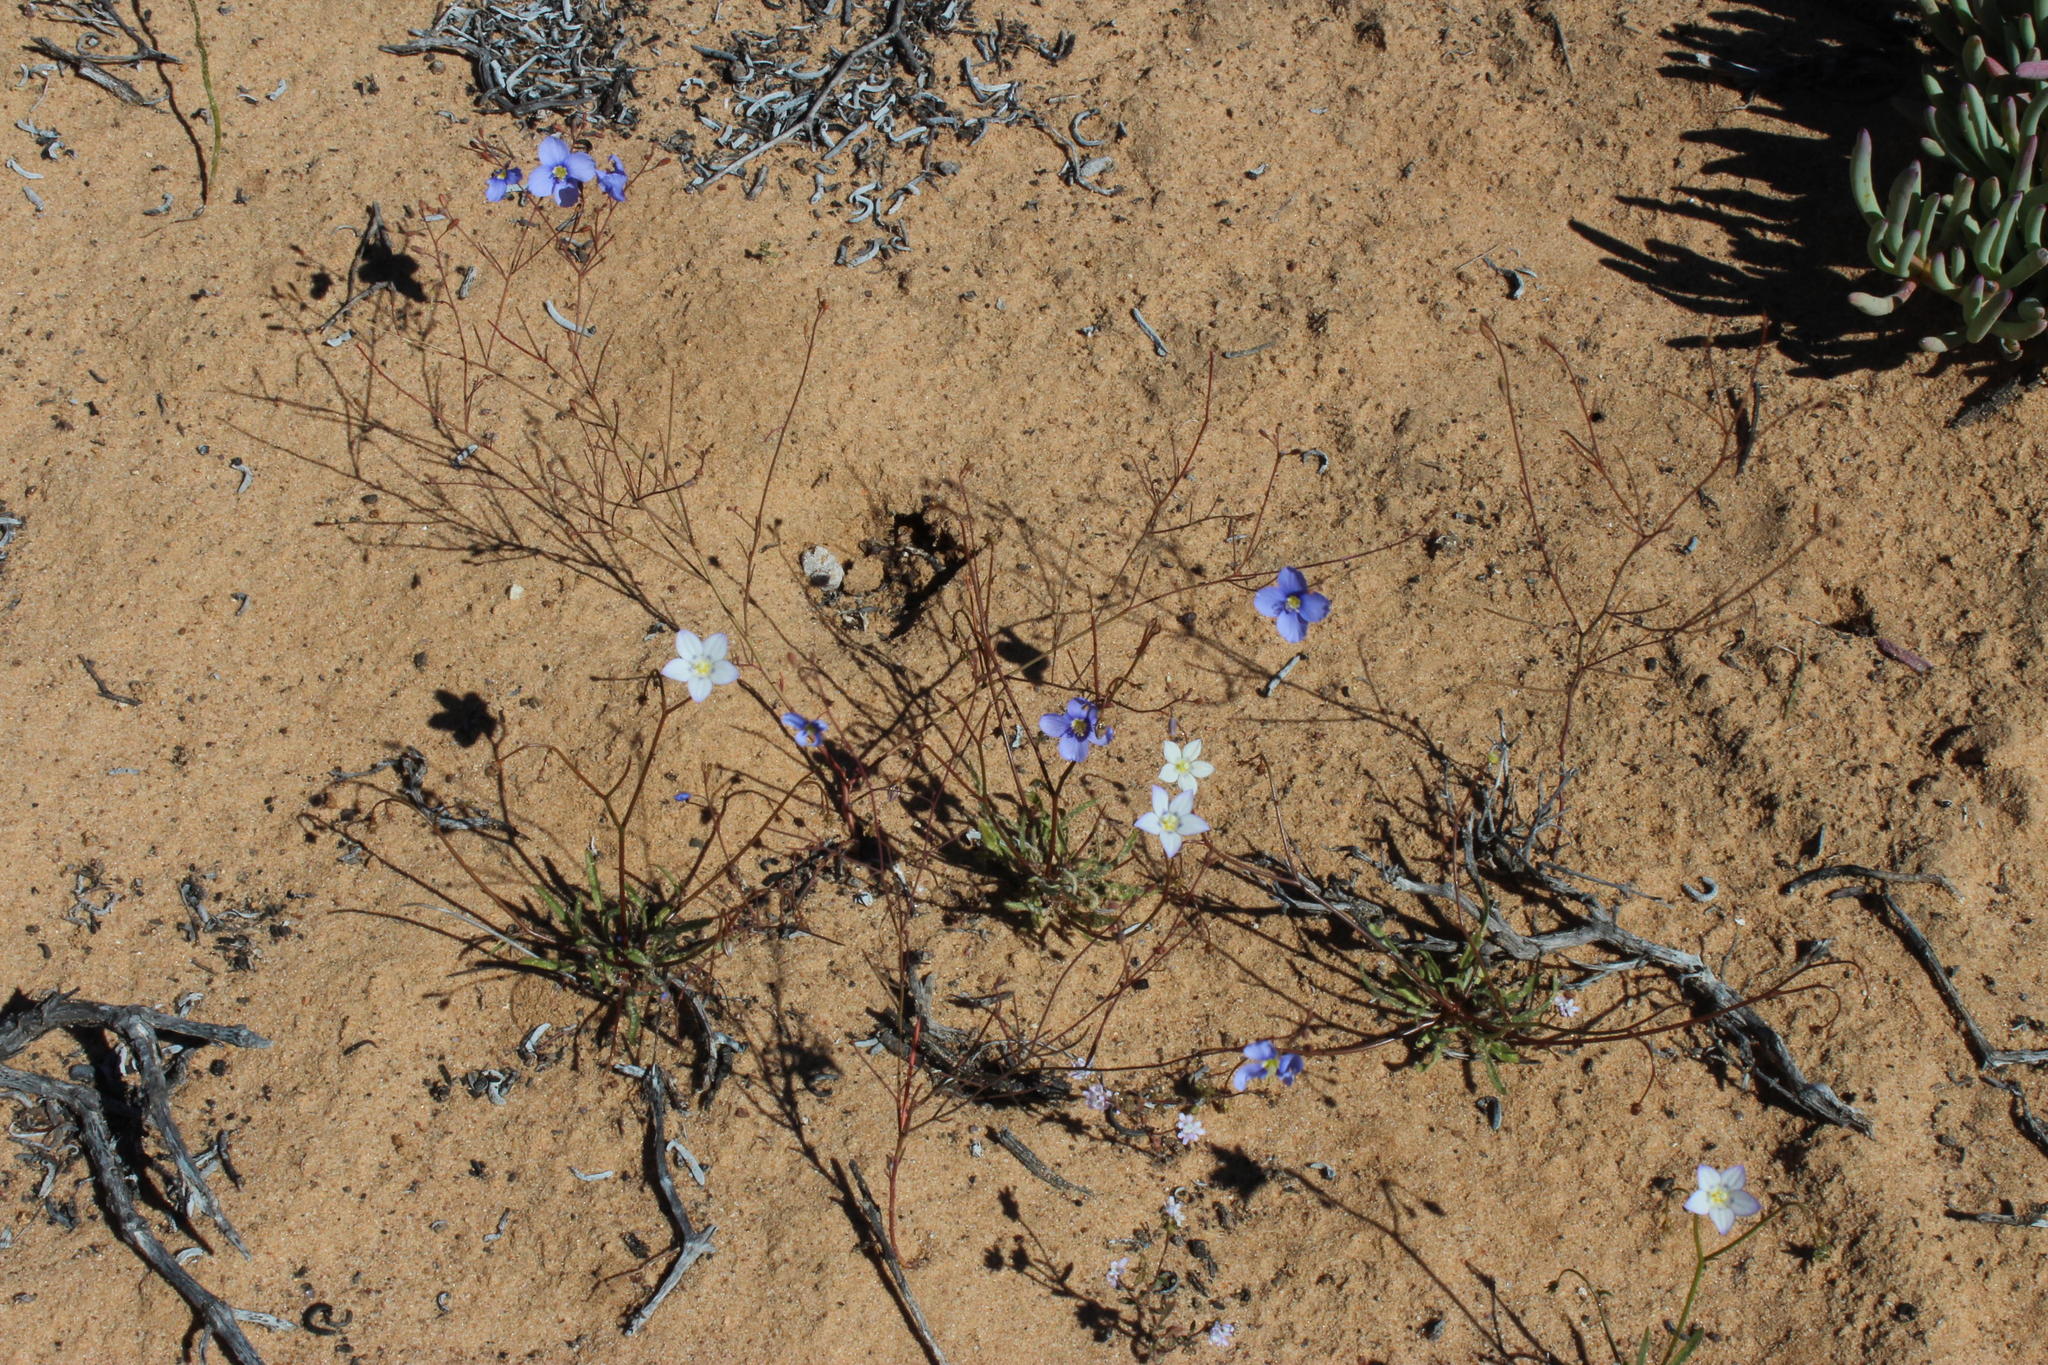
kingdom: Plantae
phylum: Tracheophyta
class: Magnoliopsida
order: Brassicales
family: Brassicaceae
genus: Heliophila
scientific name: Heliophila lactea
